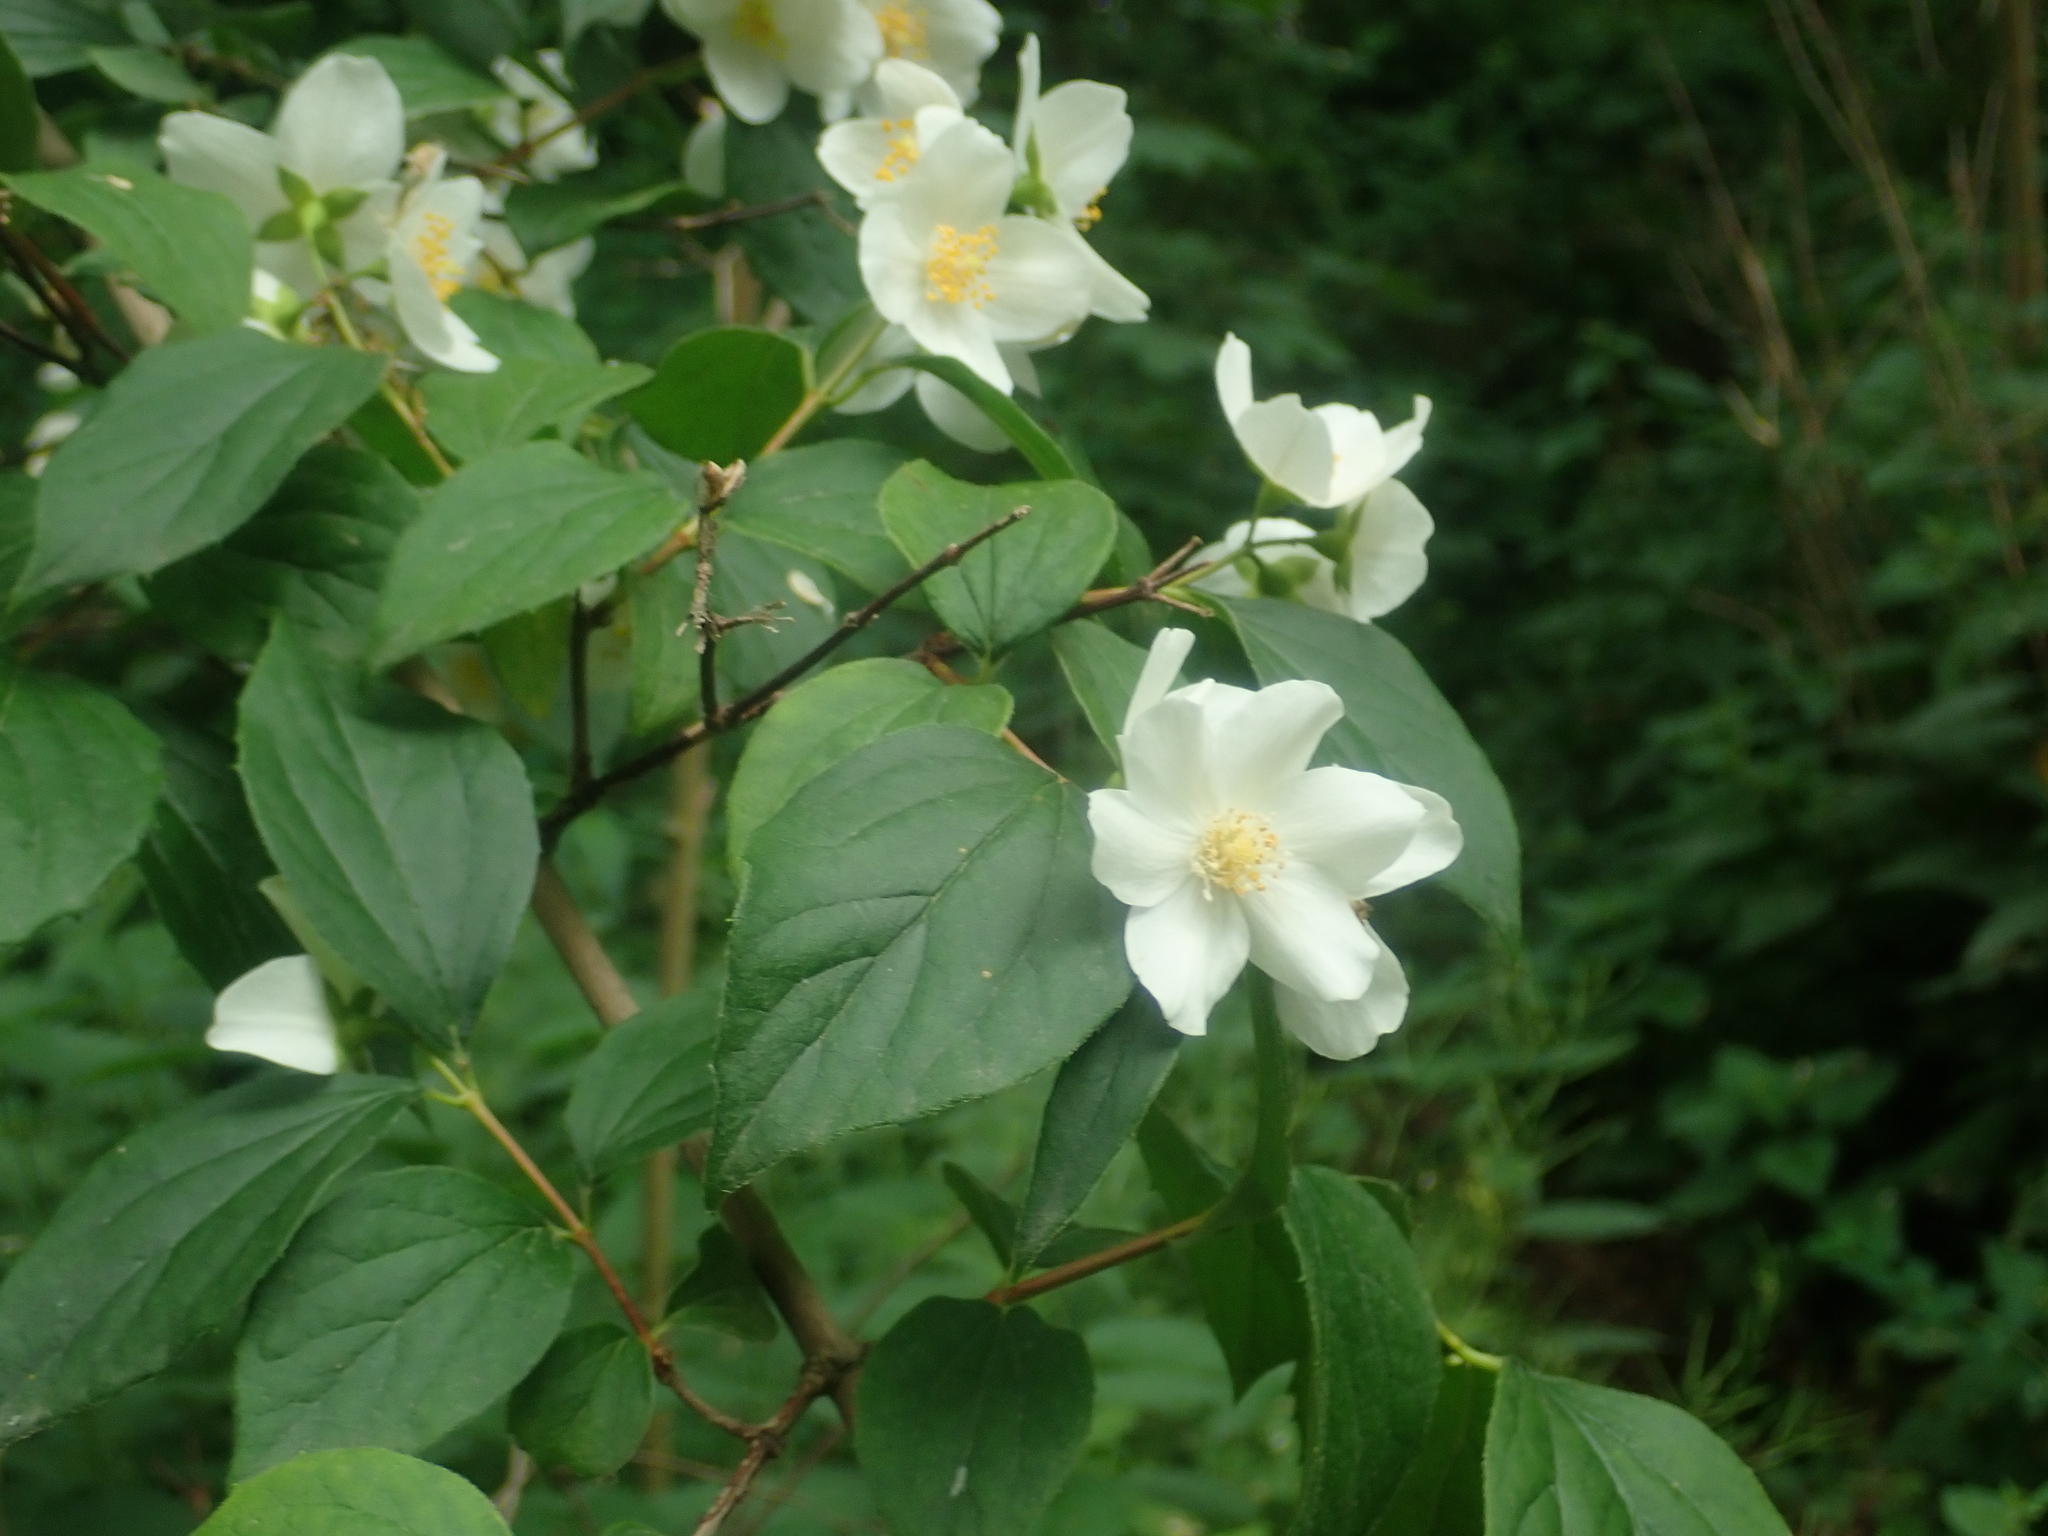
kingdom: Plantae
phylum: Tracheophyta
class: Magnoliopsida
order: Cornales
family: Hydrangeaceae
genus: Philadelphus
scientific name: Philadelphus coronarius
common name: Mock orange
